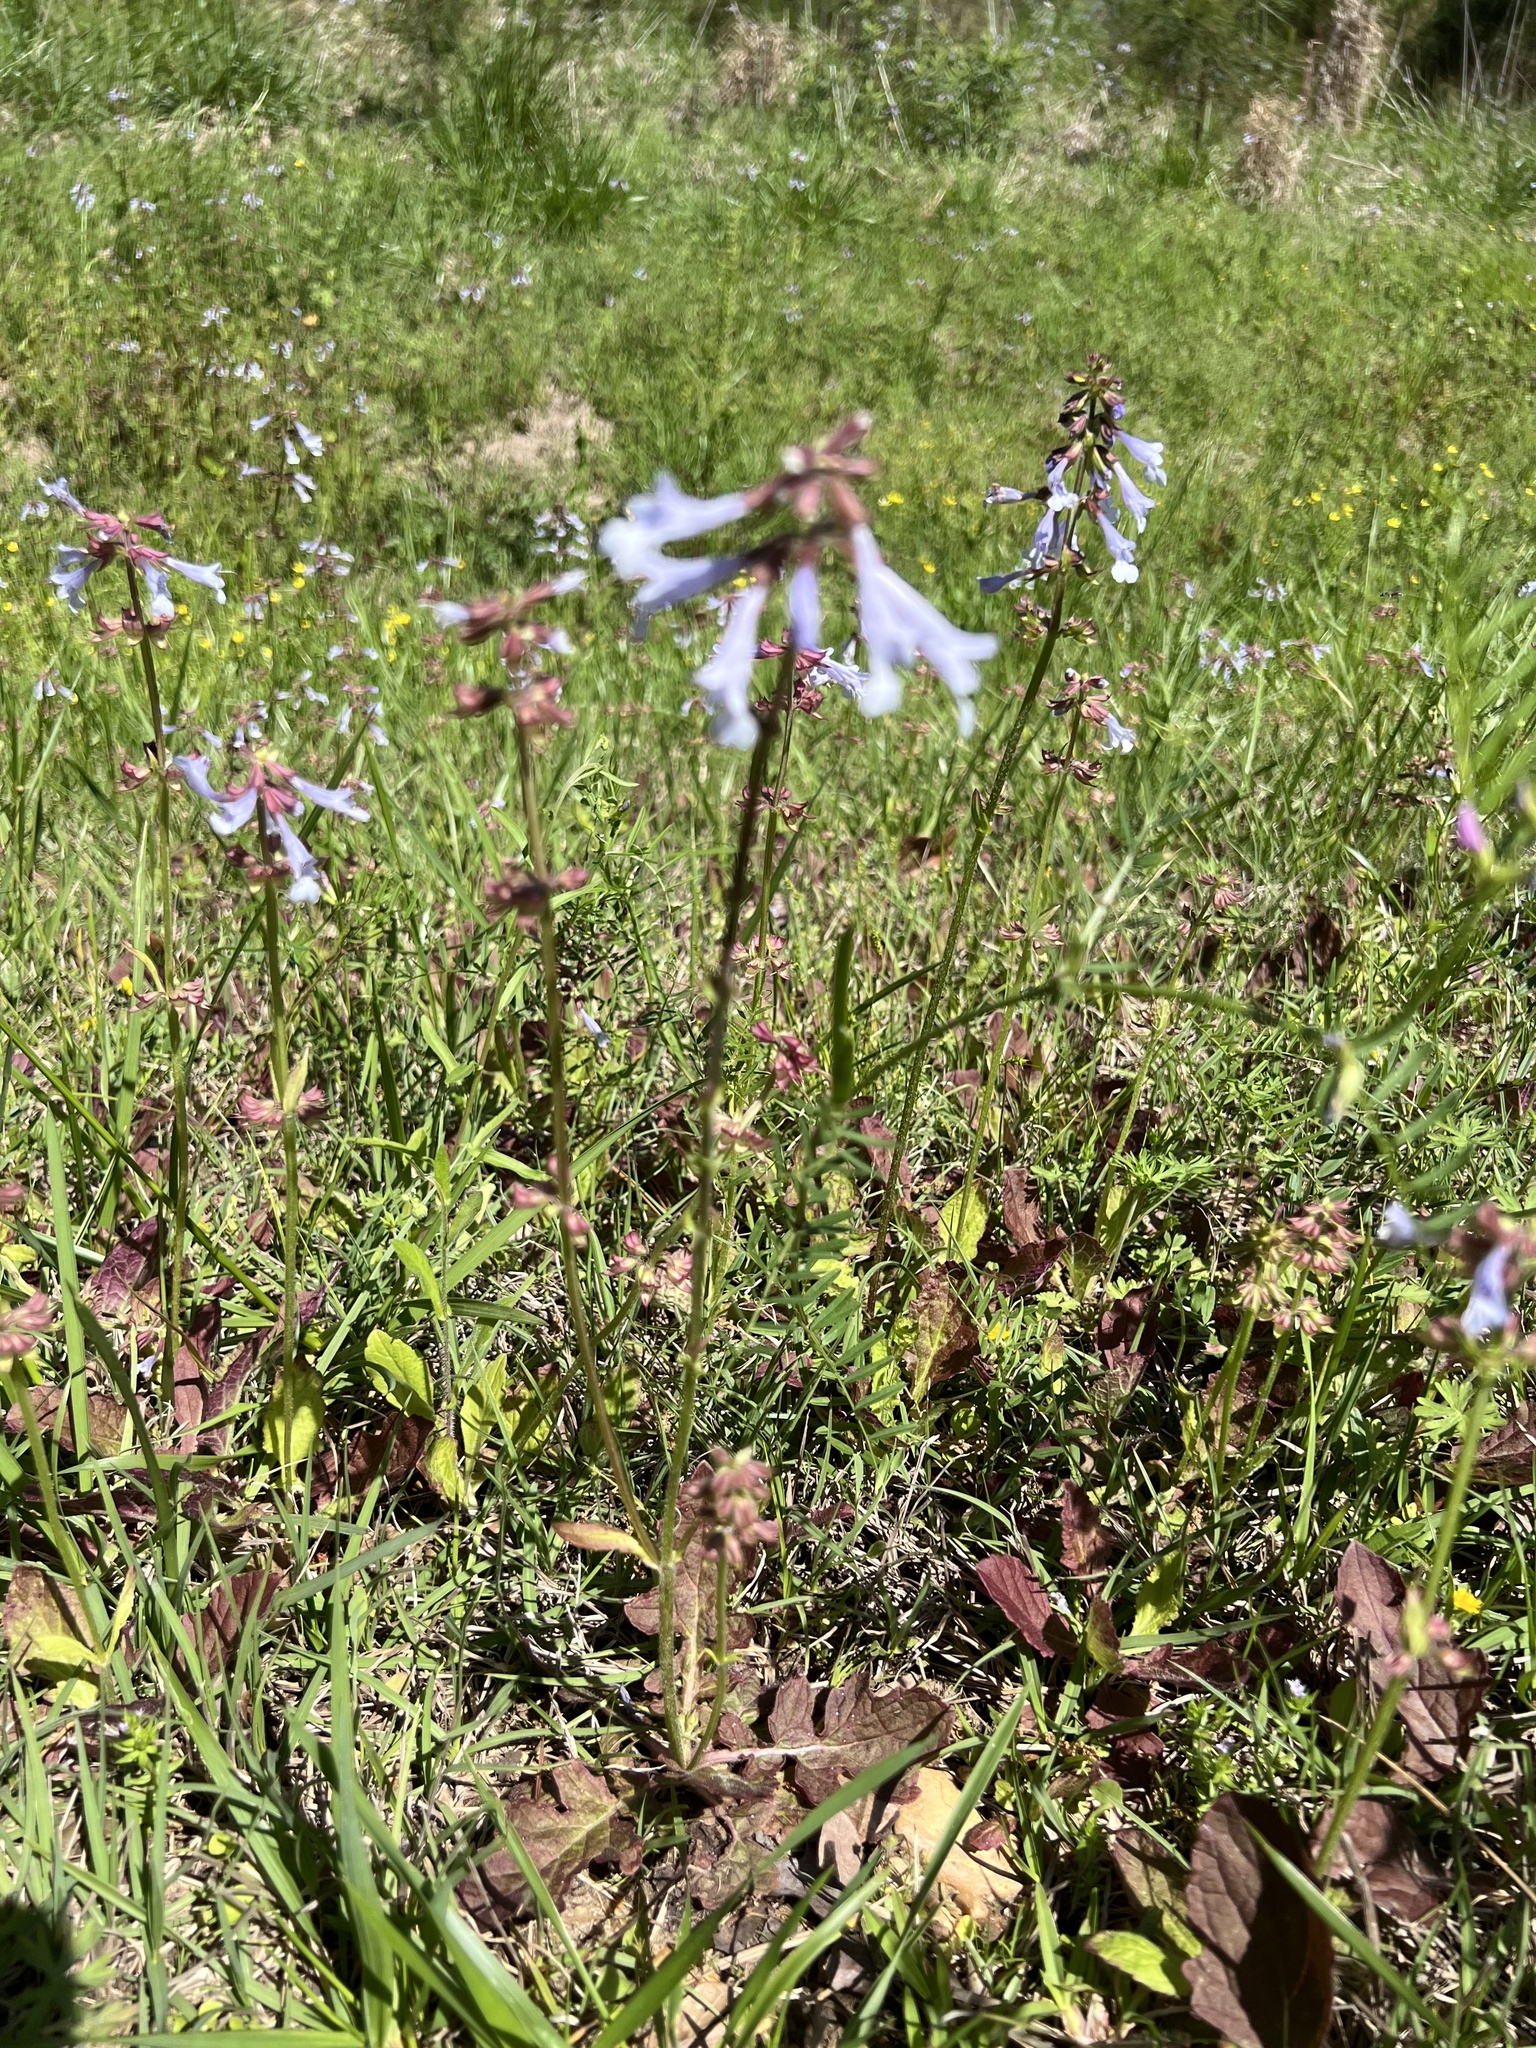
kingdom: Plantae
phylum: Tracheophyta
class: Magnoliopsida
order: Lamiales
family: Lamiaceae
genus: Salvia
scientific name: Salvia lyrata
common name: Cancerweed
